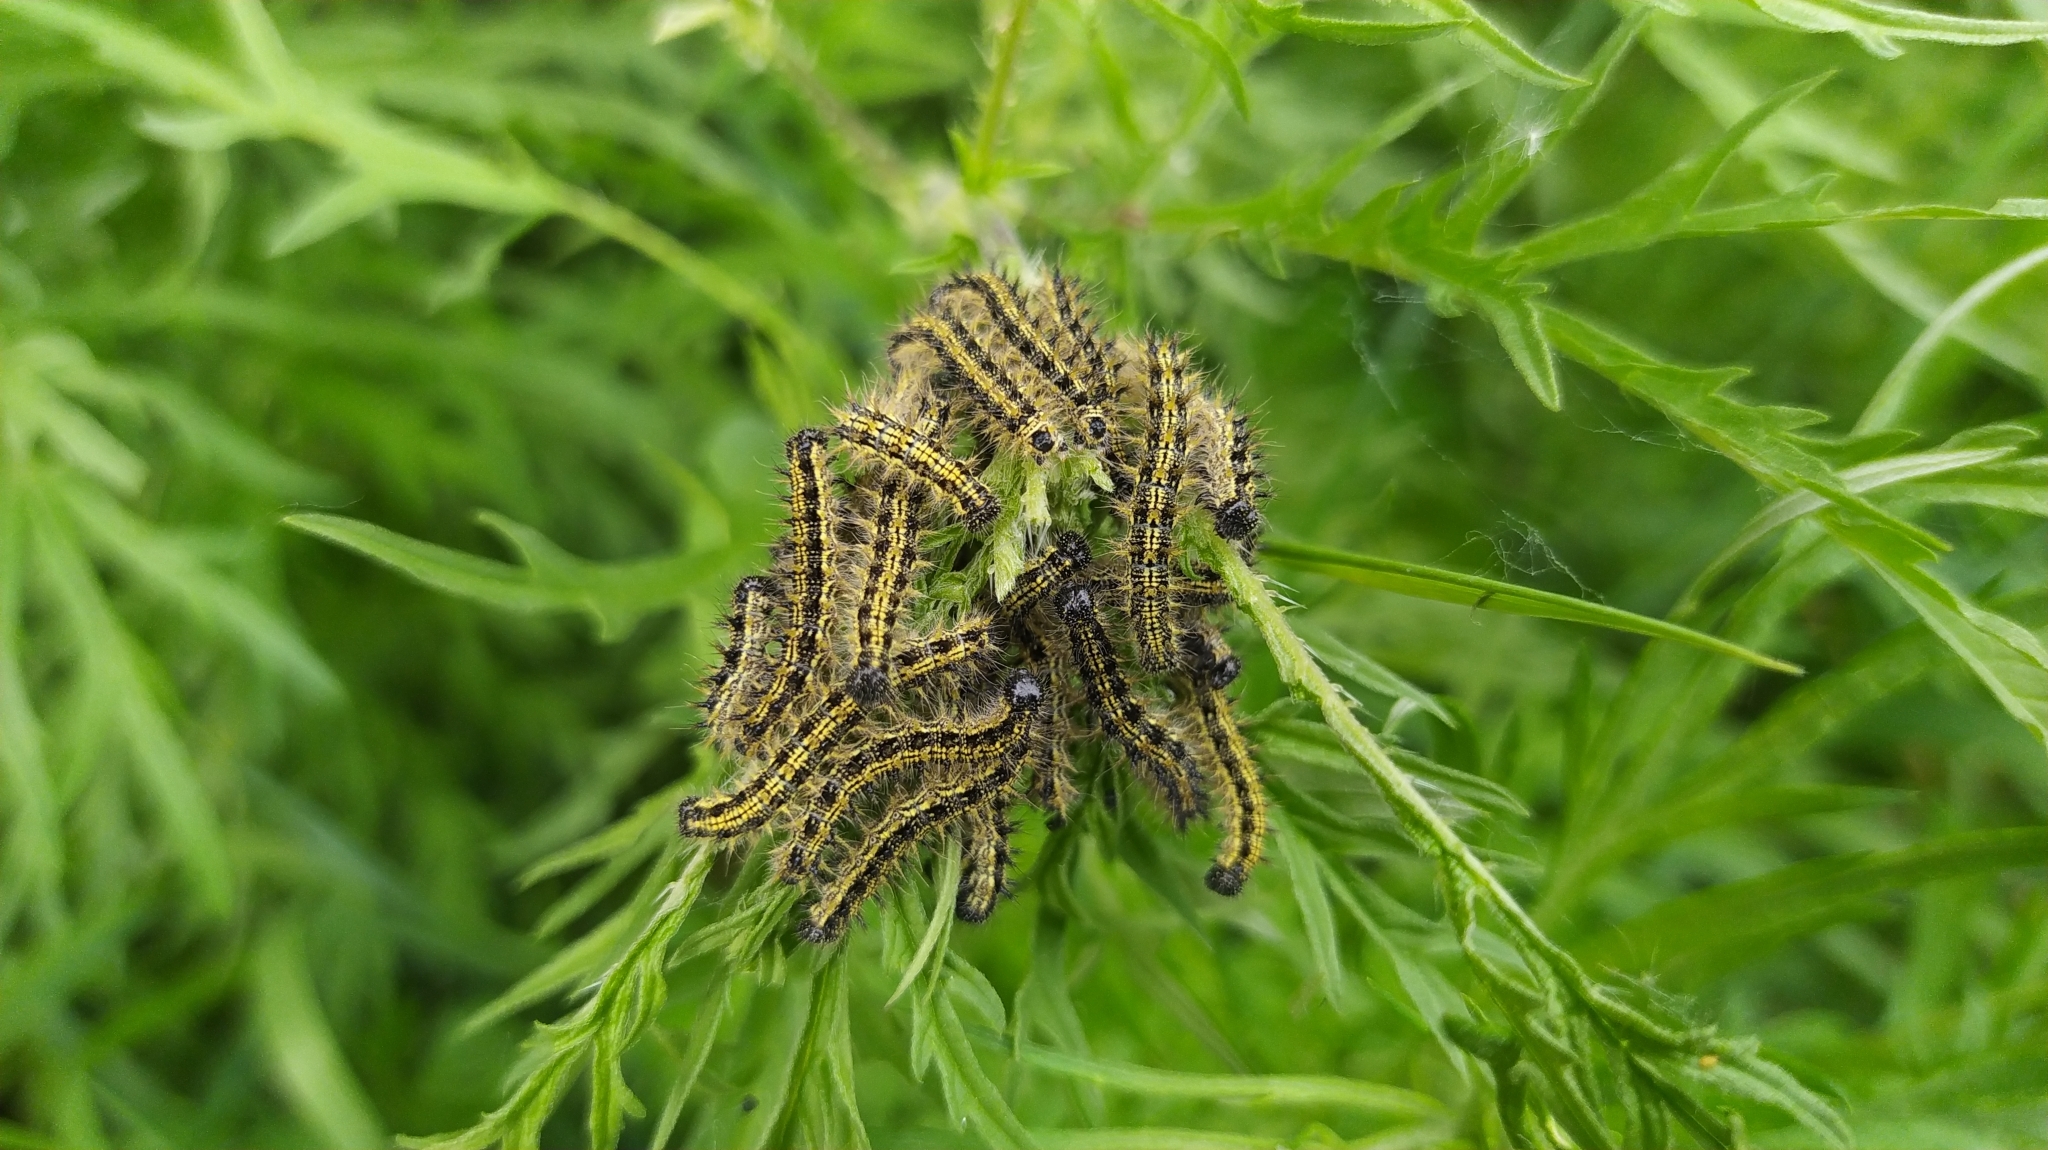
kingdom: Animalia
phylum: Arthropoda
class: Insecta
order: Lepidoptera
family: Nymphalidae
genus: Aglais
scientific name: Aglais urticae
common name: Small tortoiseshell
